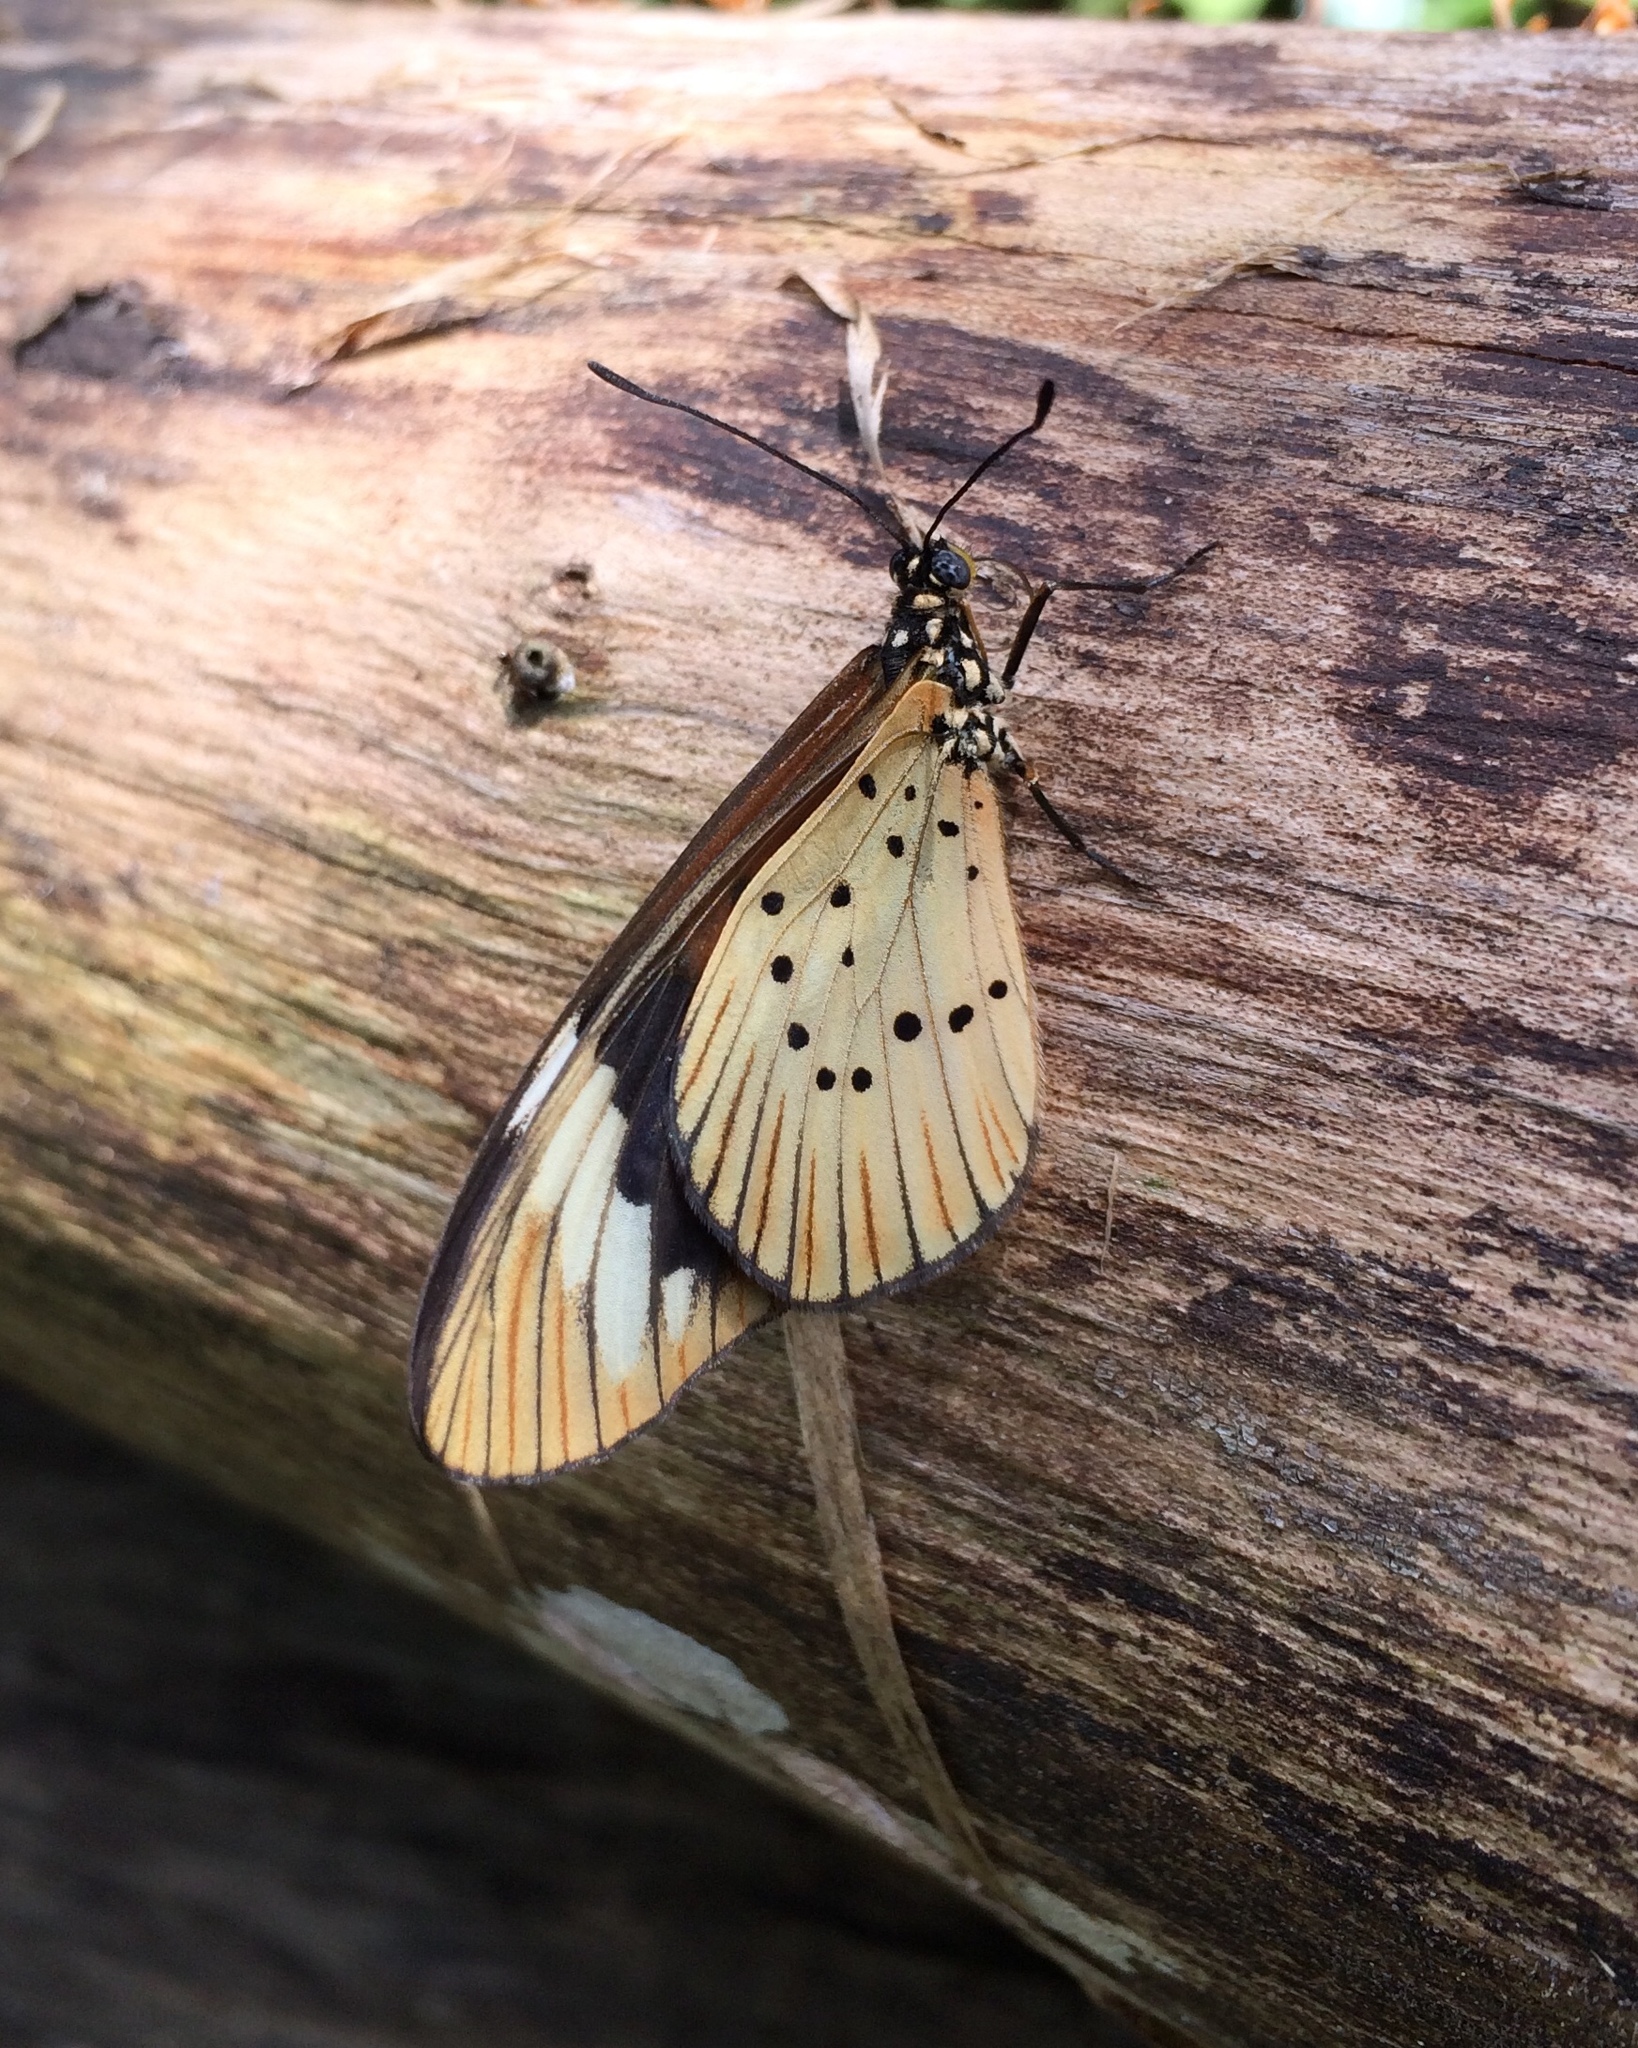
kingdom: Animalia
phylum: Arthropoda
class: Insecta
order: Lepidoptera
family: Nymphalidae
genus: Acraea
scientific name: Acraea Telchinia encedon
